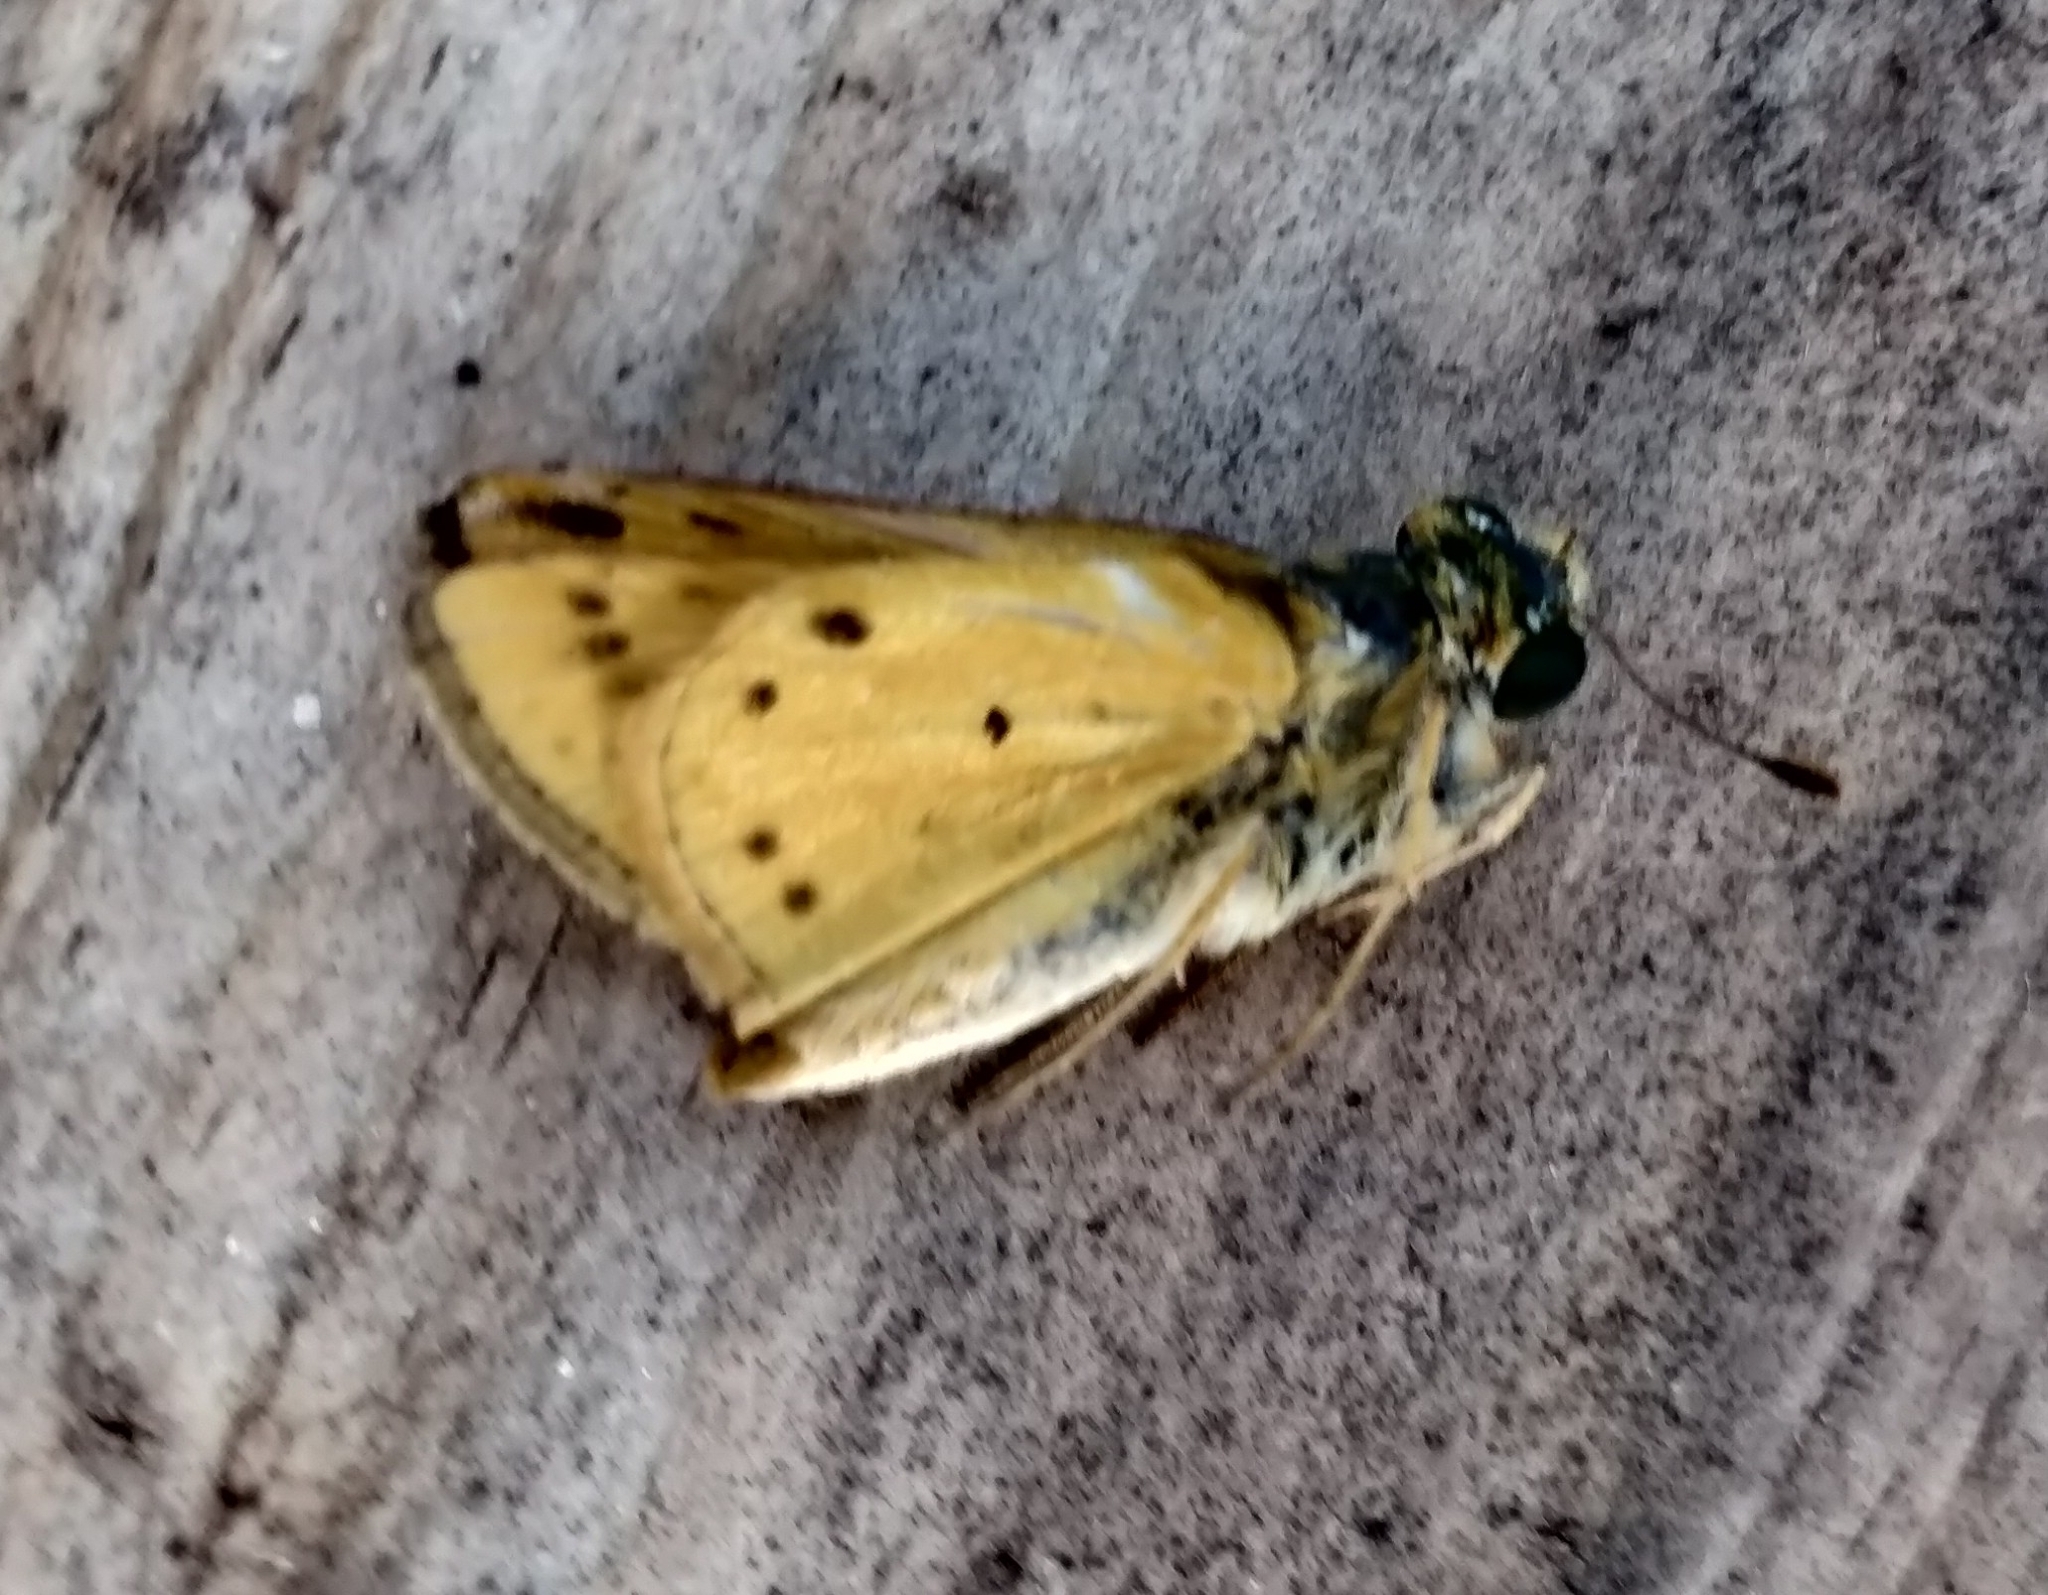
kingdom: Animalia
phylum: Arthropoda
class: Insecta
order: Lepidoptera
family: Hesperiidae
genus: Hylephila
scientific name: Hylephila phyleus
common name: Fiery skipper
